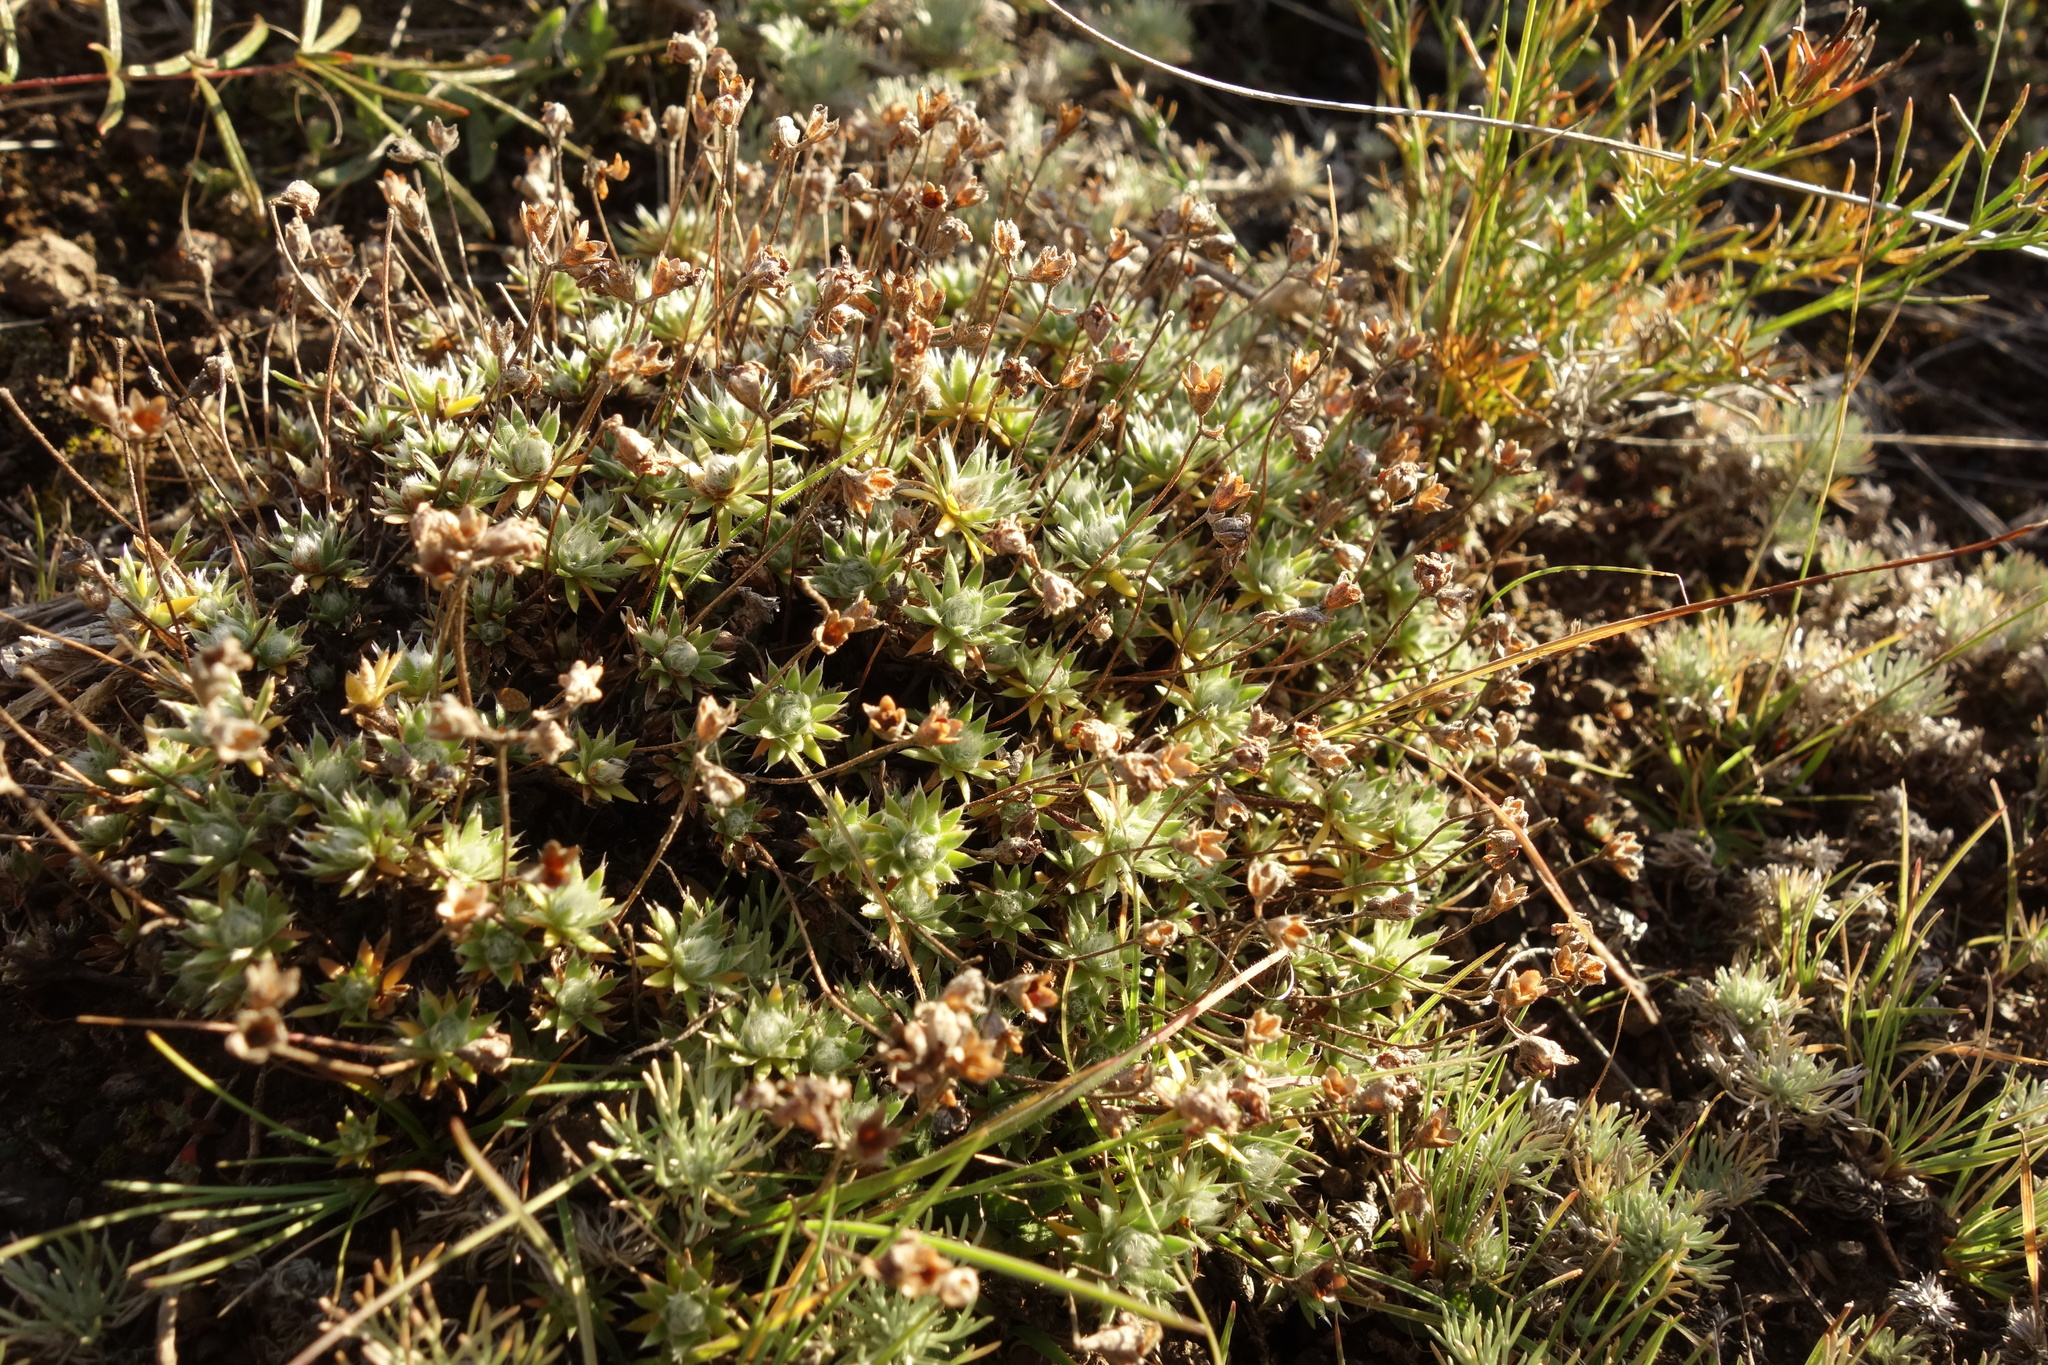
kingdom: Plantae
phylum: Tracheophyta
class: Magnoliopsida
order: Ericales
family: Primulaceae
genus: Androsace
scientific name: Androsace incana
